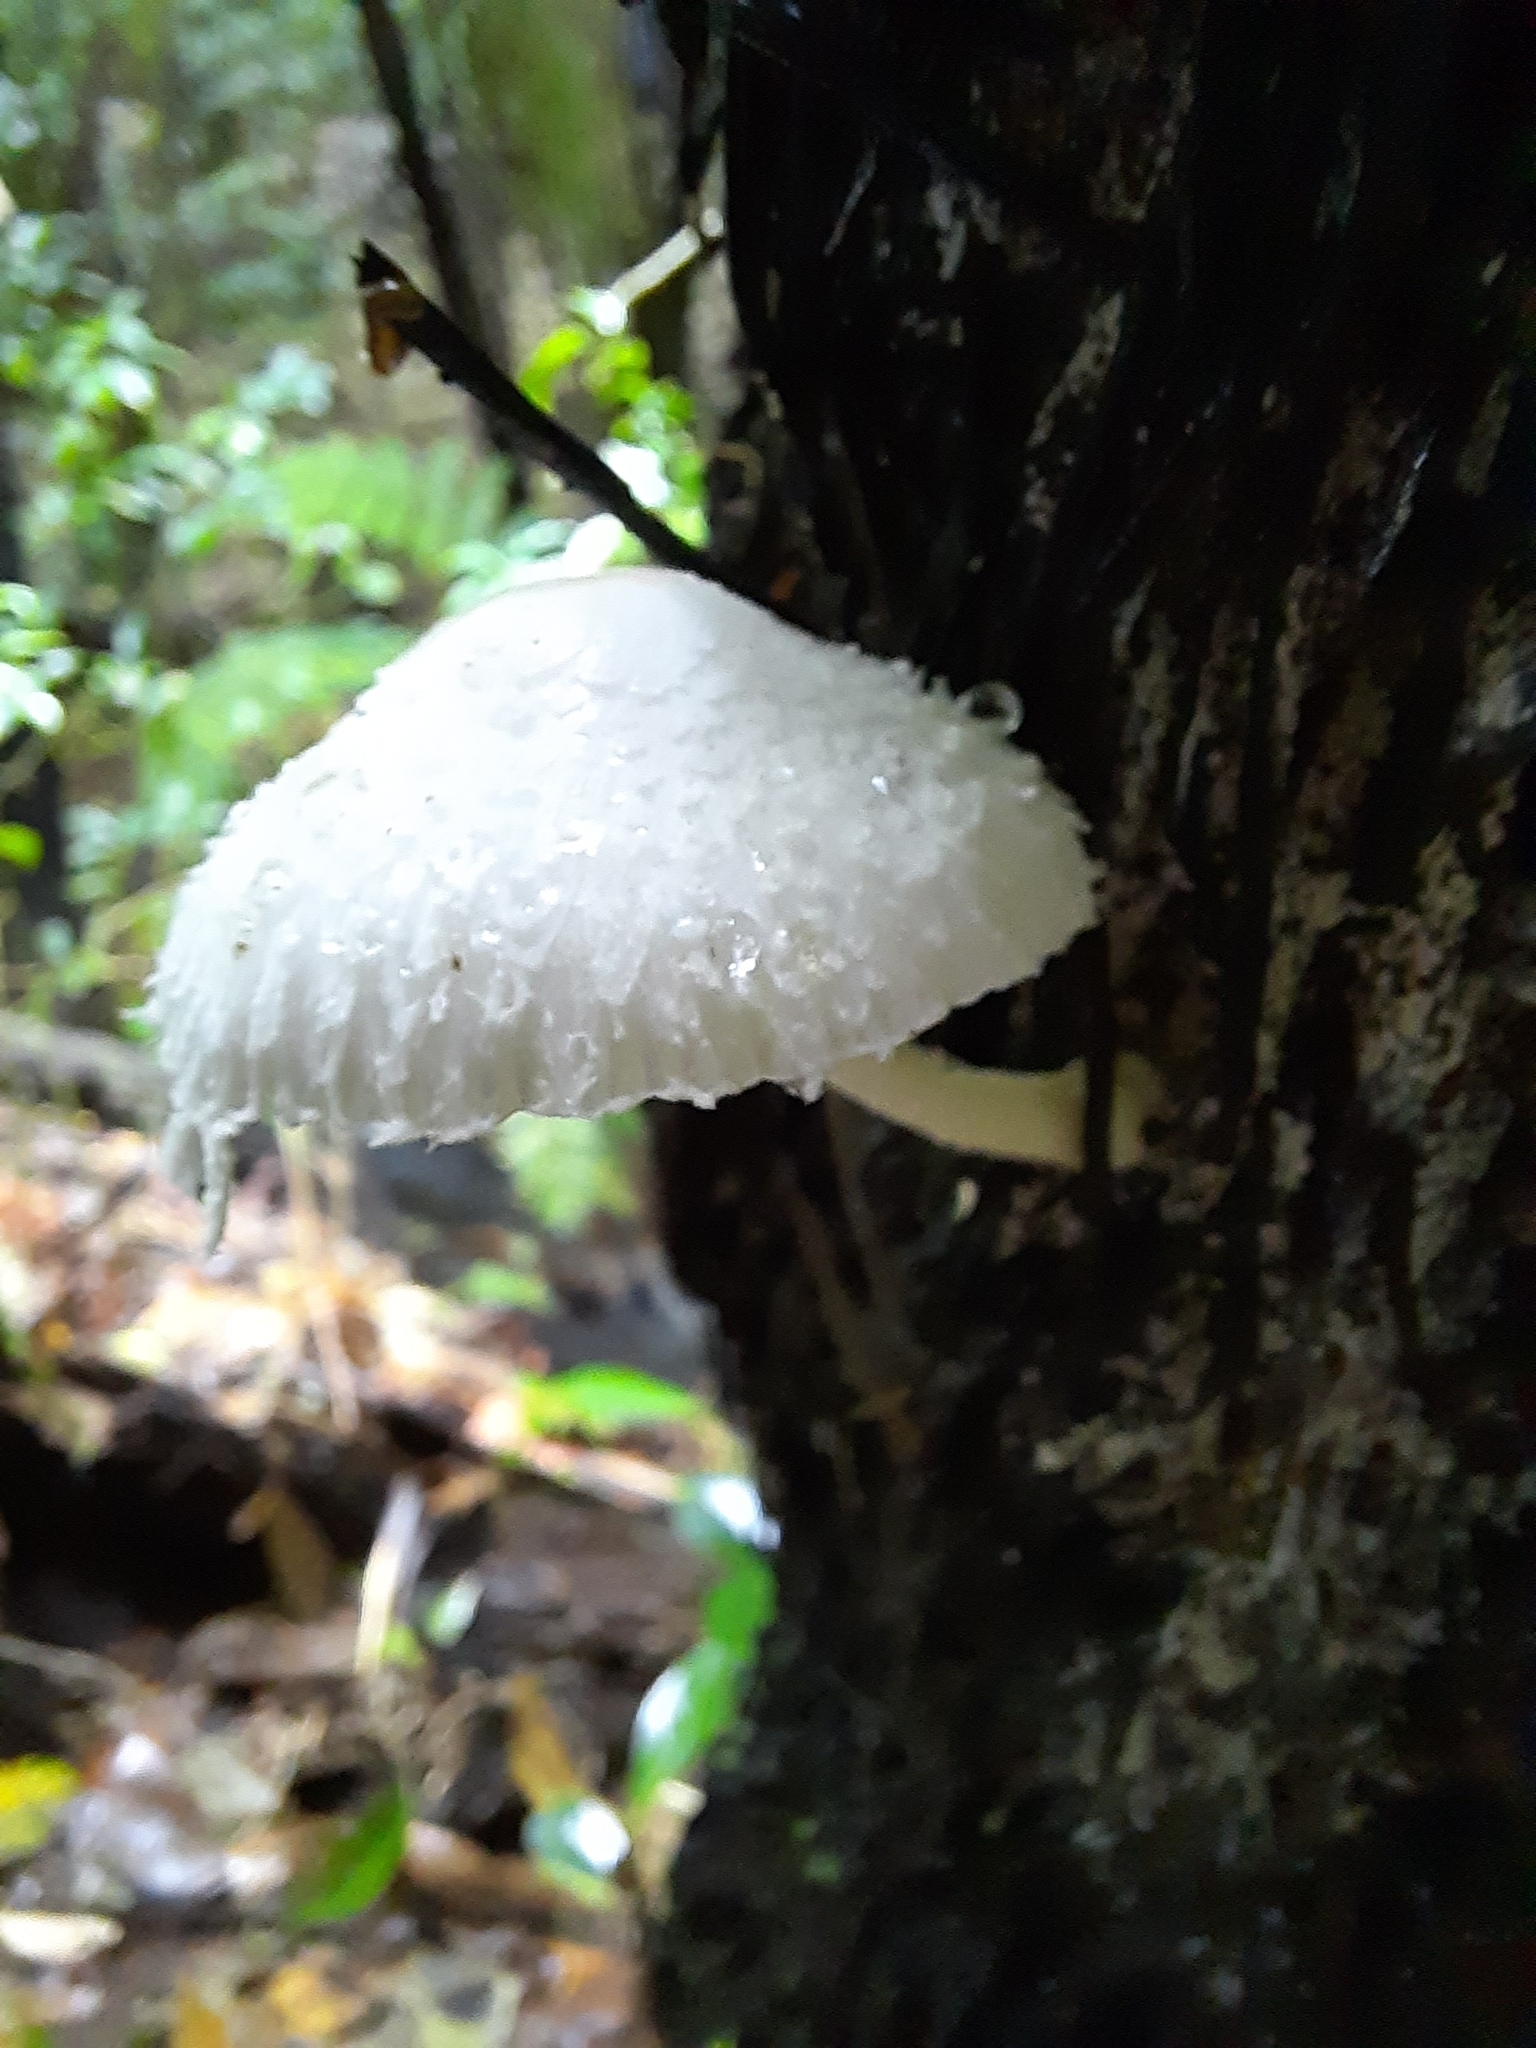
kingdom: Fungi
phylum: Basidiomycota
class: Agaricomycetes
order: Agaricales
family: Agaricaceae
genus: Leucocoprinus
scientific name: Leucocoprinus cepistipes
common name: Onion-stalk parasol
